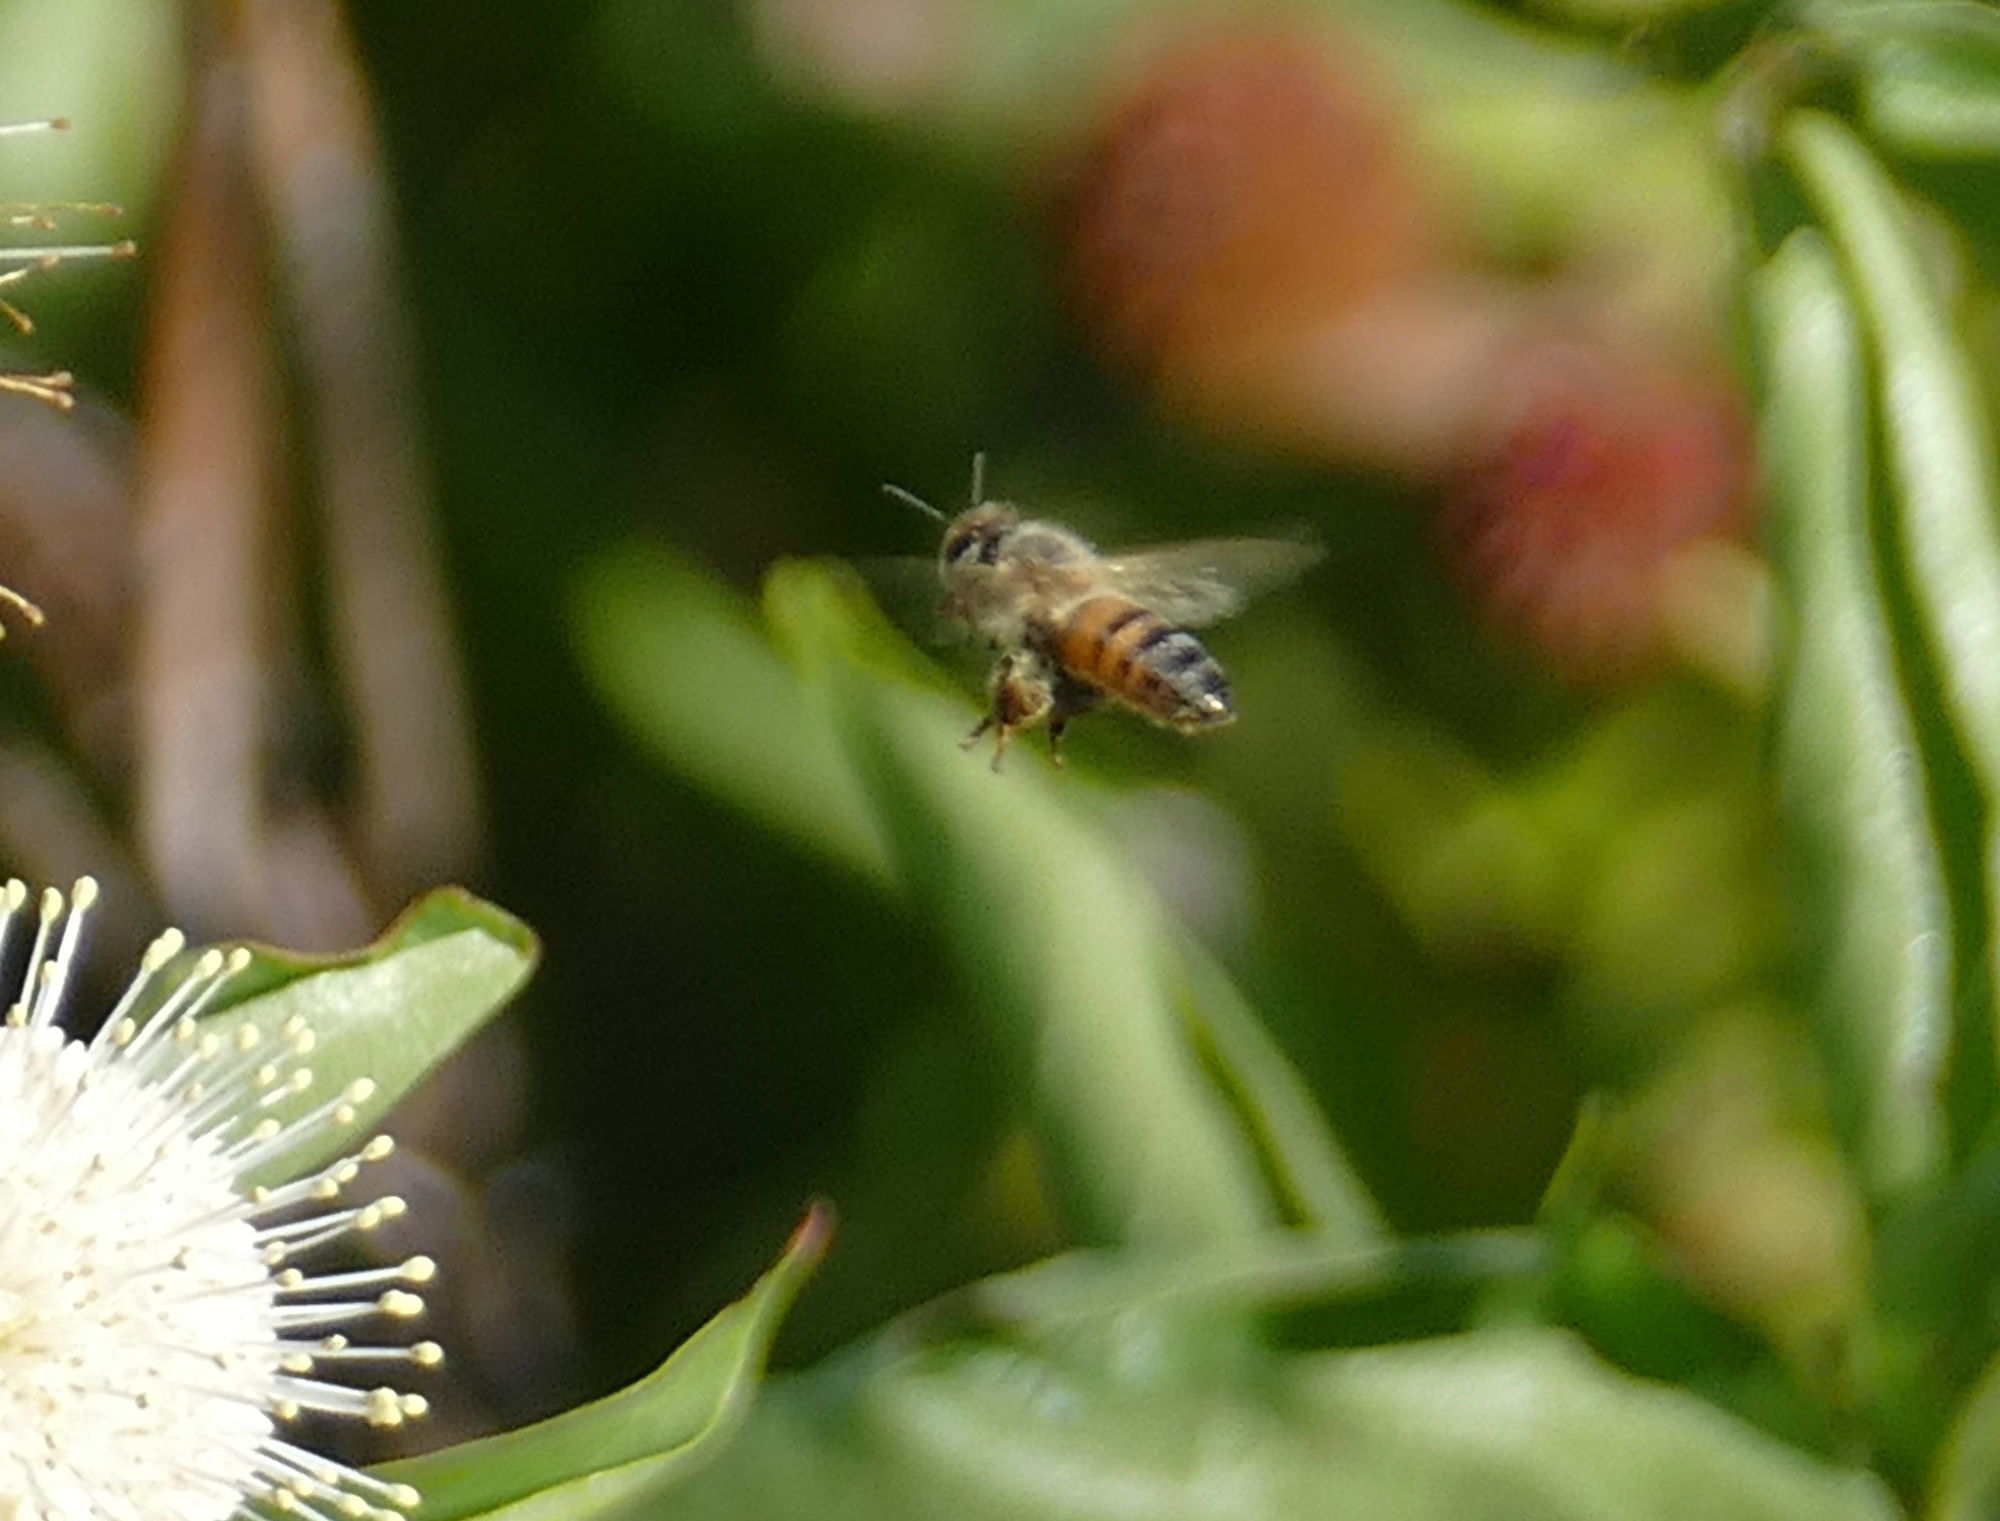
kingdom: Animalia
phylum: Arthropoda
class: Insecta
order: Hymenoptera
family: Apidae
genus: Apis
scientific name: Apis mellifera
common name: Honey bee
